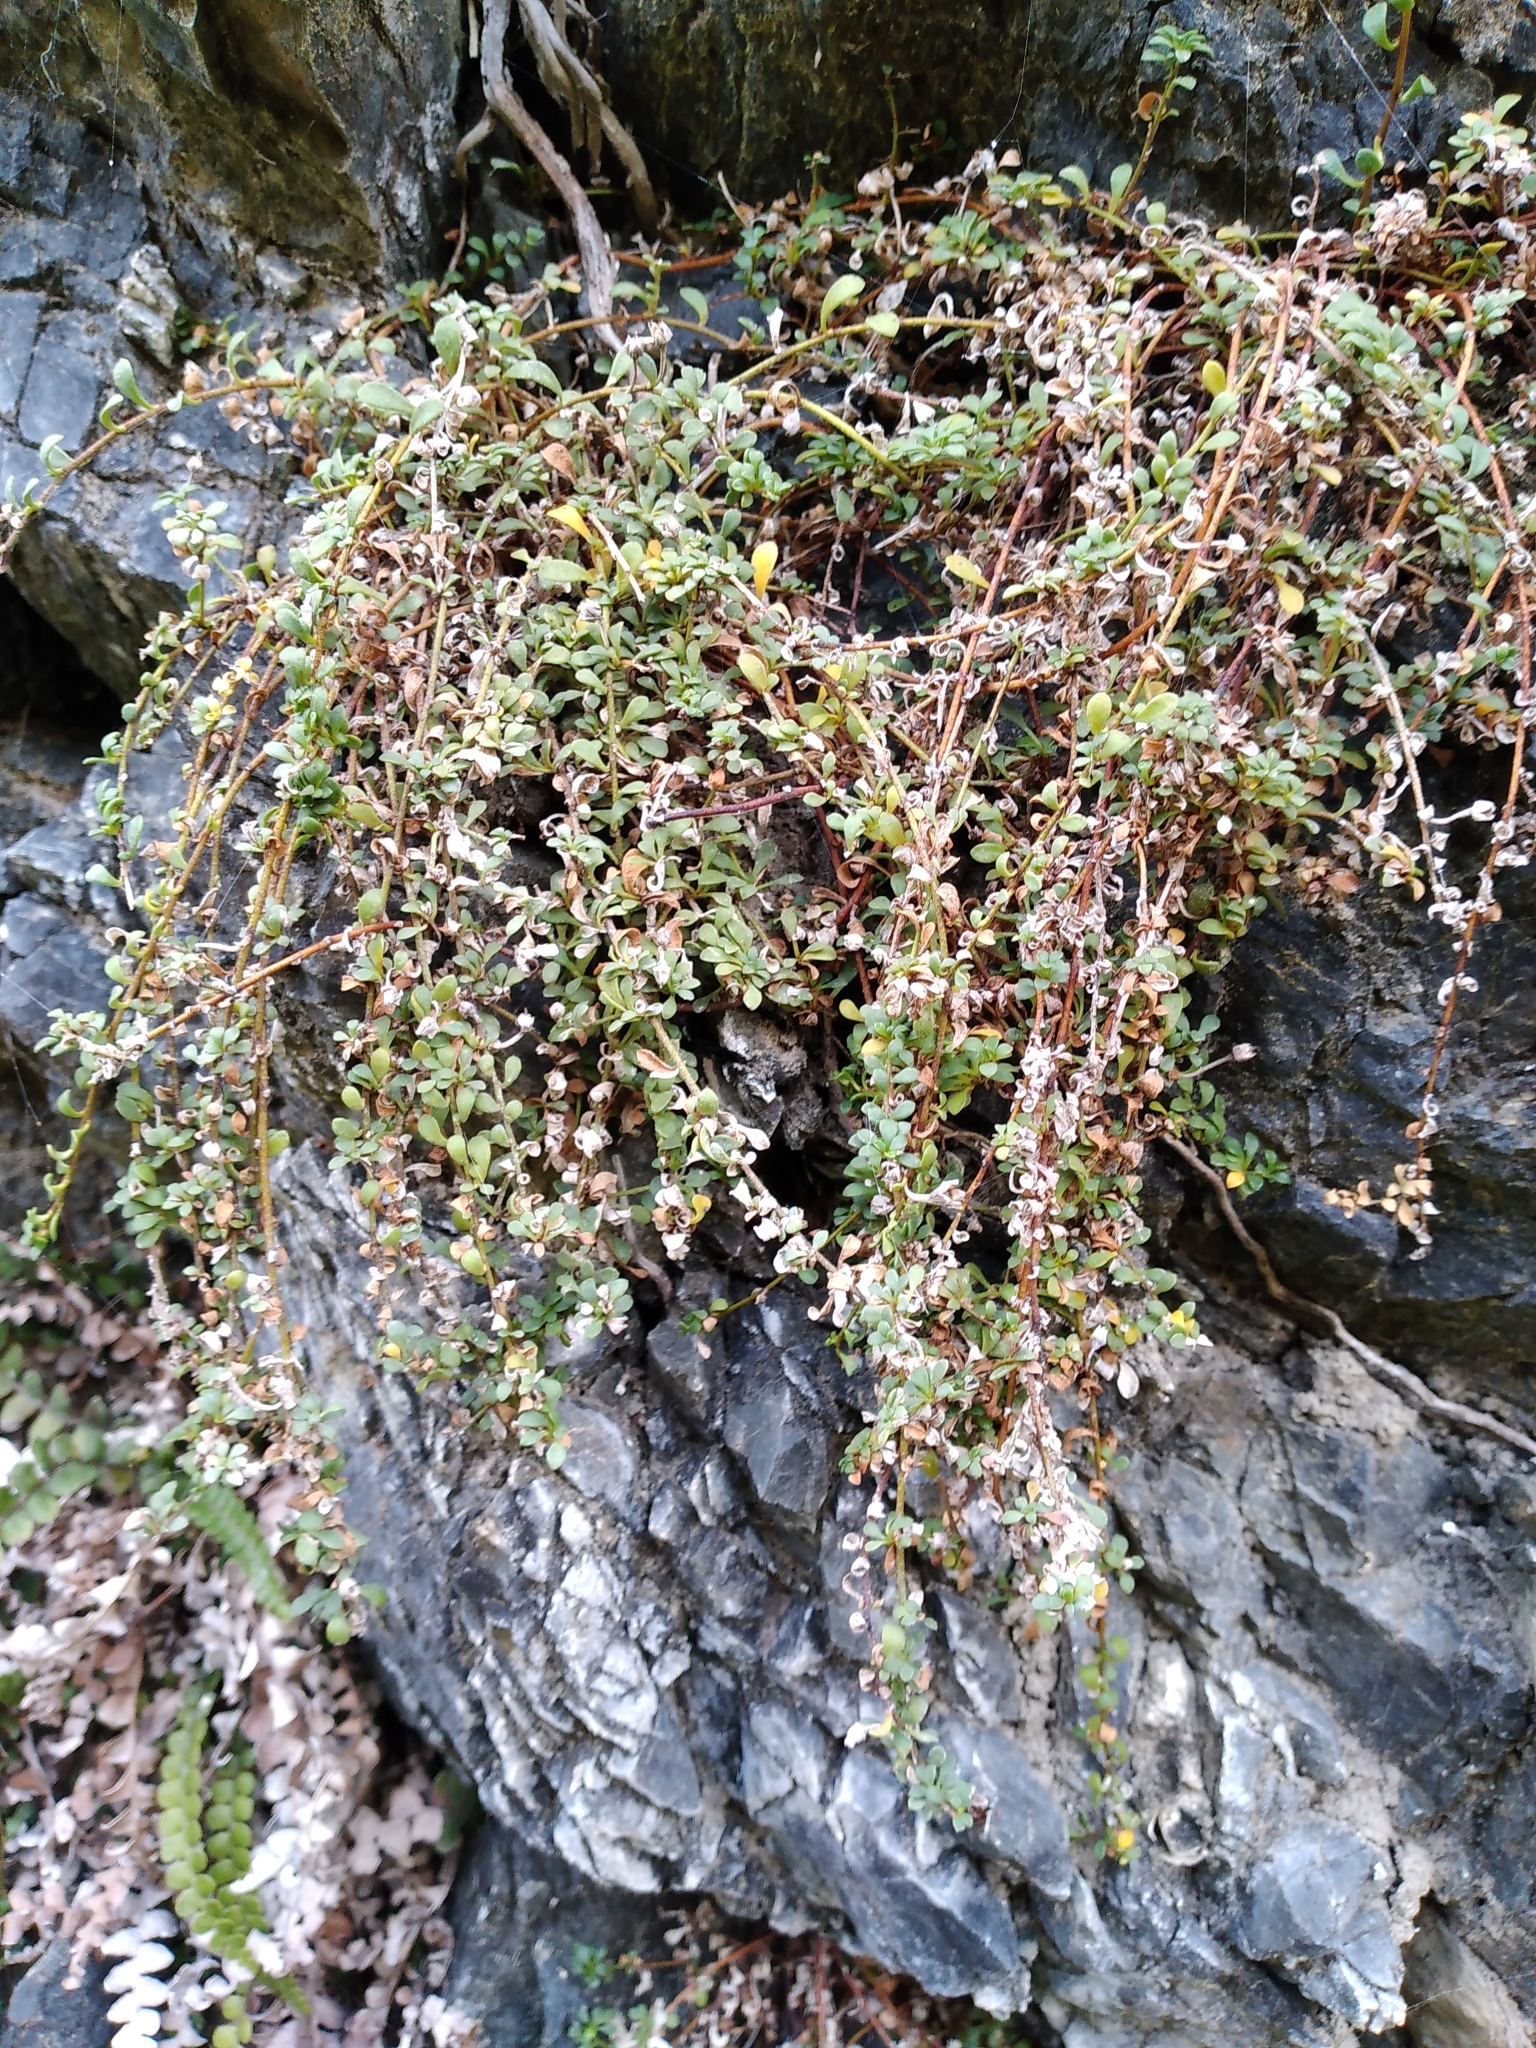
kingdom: Plantae
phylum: Tracheophyta
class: Magnoliopsida
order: Ericales
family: Primulaceae
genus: Samolus
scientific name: Samolus repens
